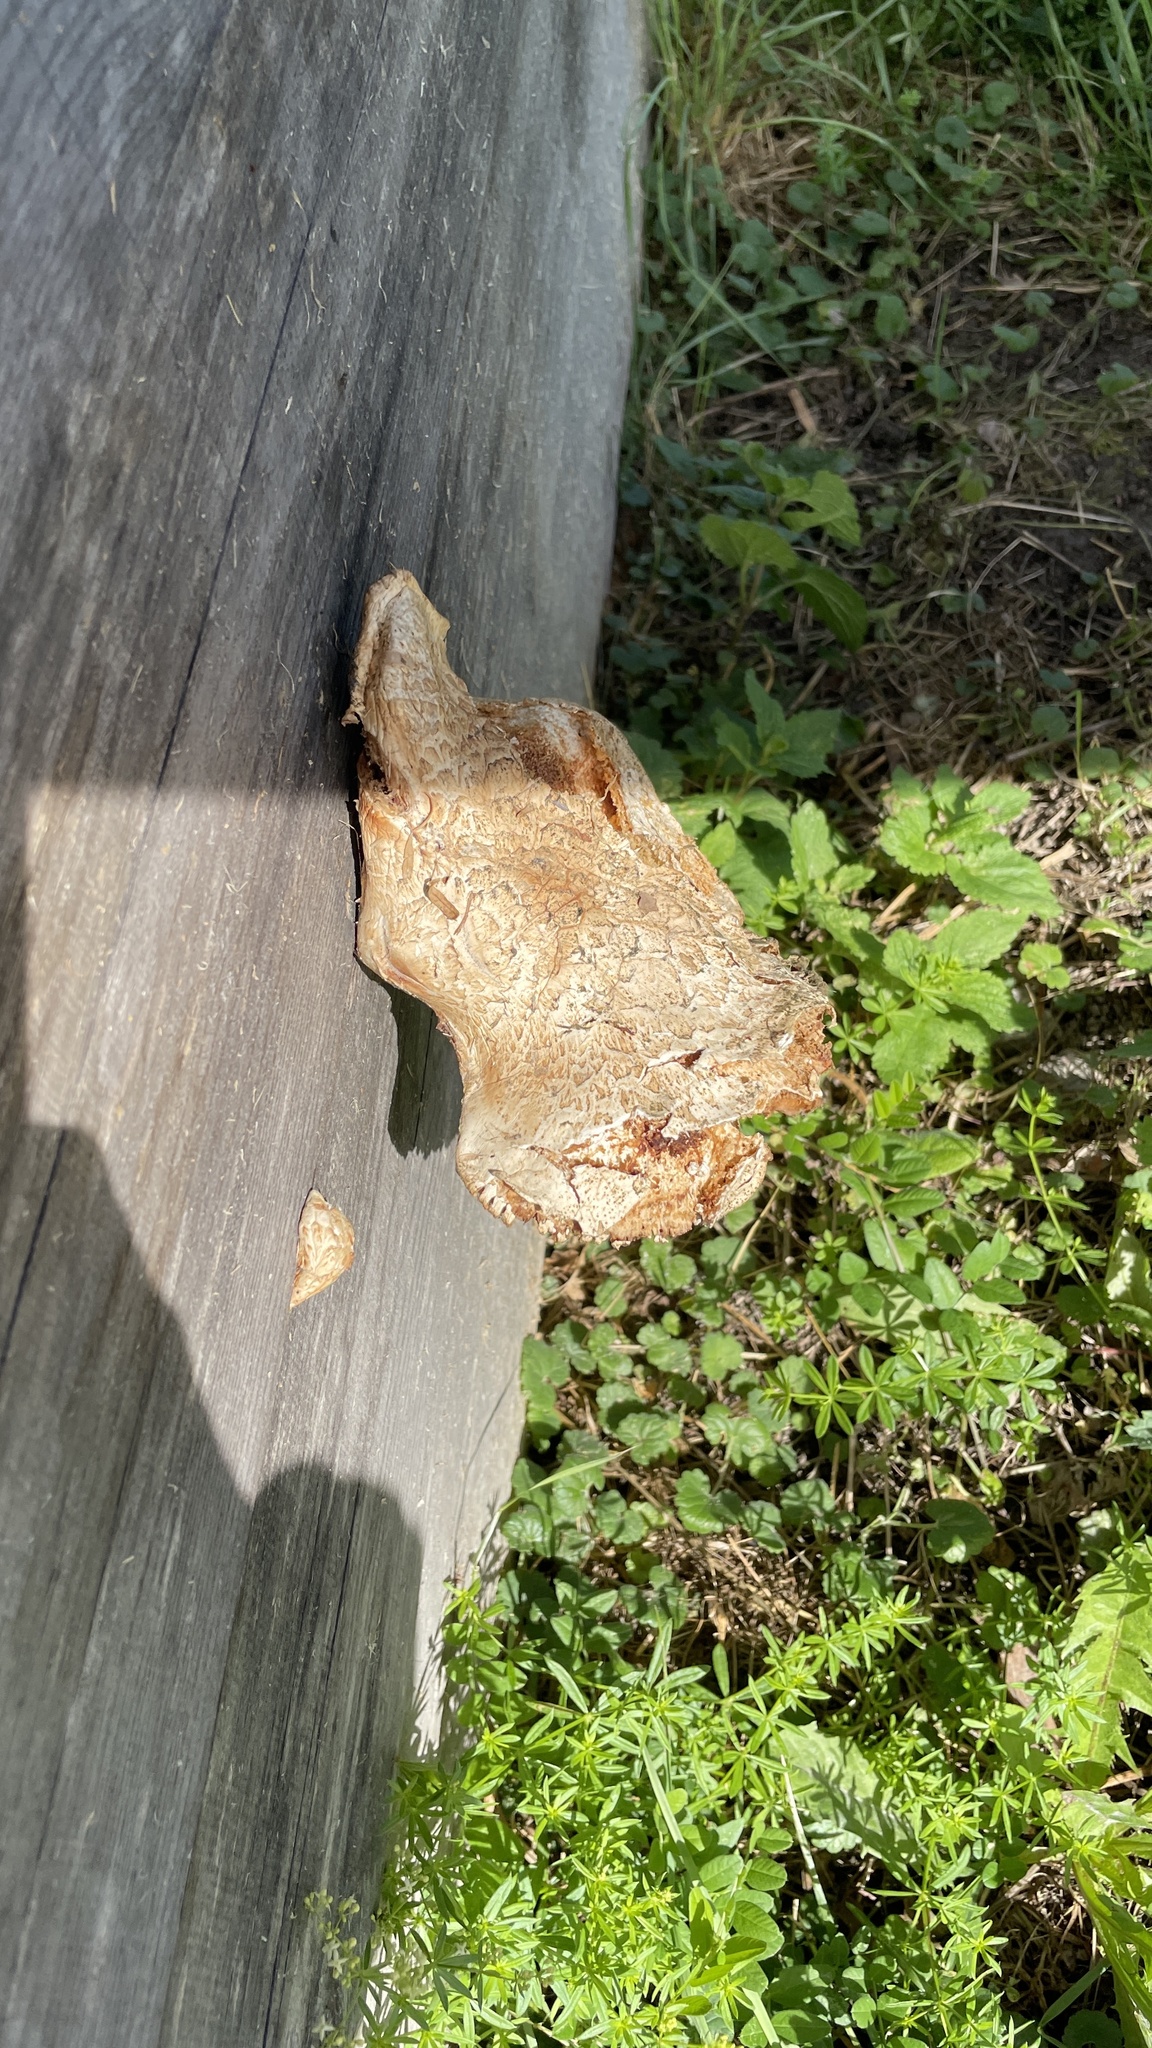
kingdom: Fungi
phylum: Basidiomycota
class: Agaricomycetes
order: Polyporales
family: Polyporaceae
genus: Cerioporus
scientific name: Cerioporus squamosus
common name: Dryad's saddle
